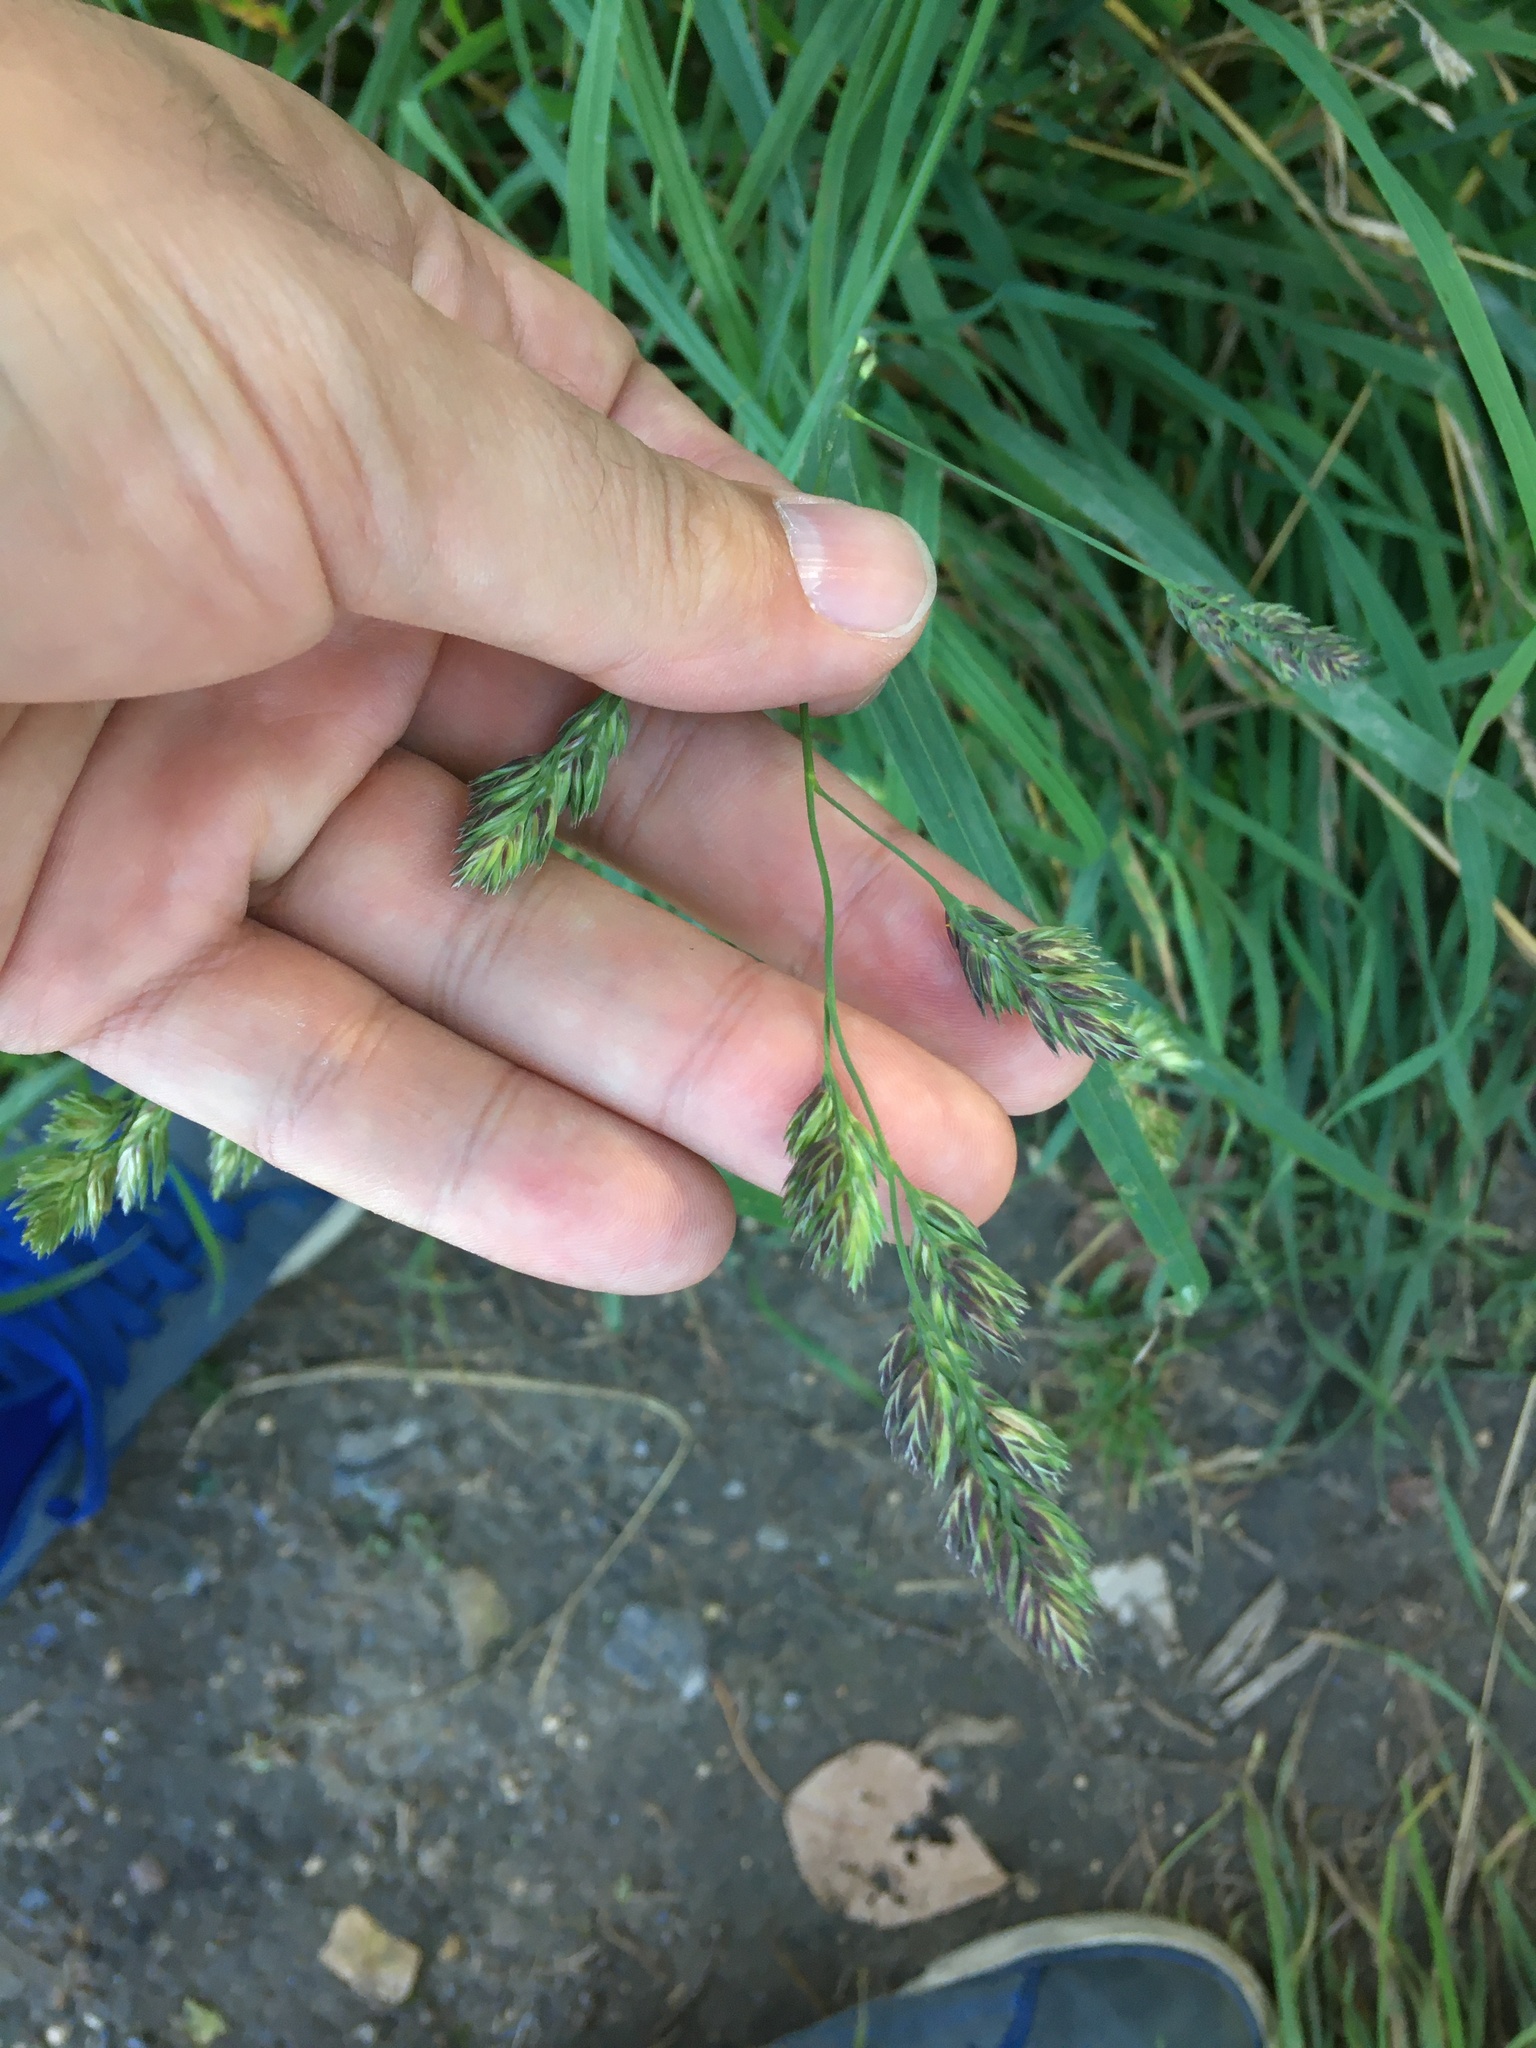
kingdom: Plantae
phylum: Tracheophyta
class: Liliopsida
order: Poales
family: Poaceae
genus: Dactylis
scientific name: Dactylis glomerata
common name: Orchardgrass
